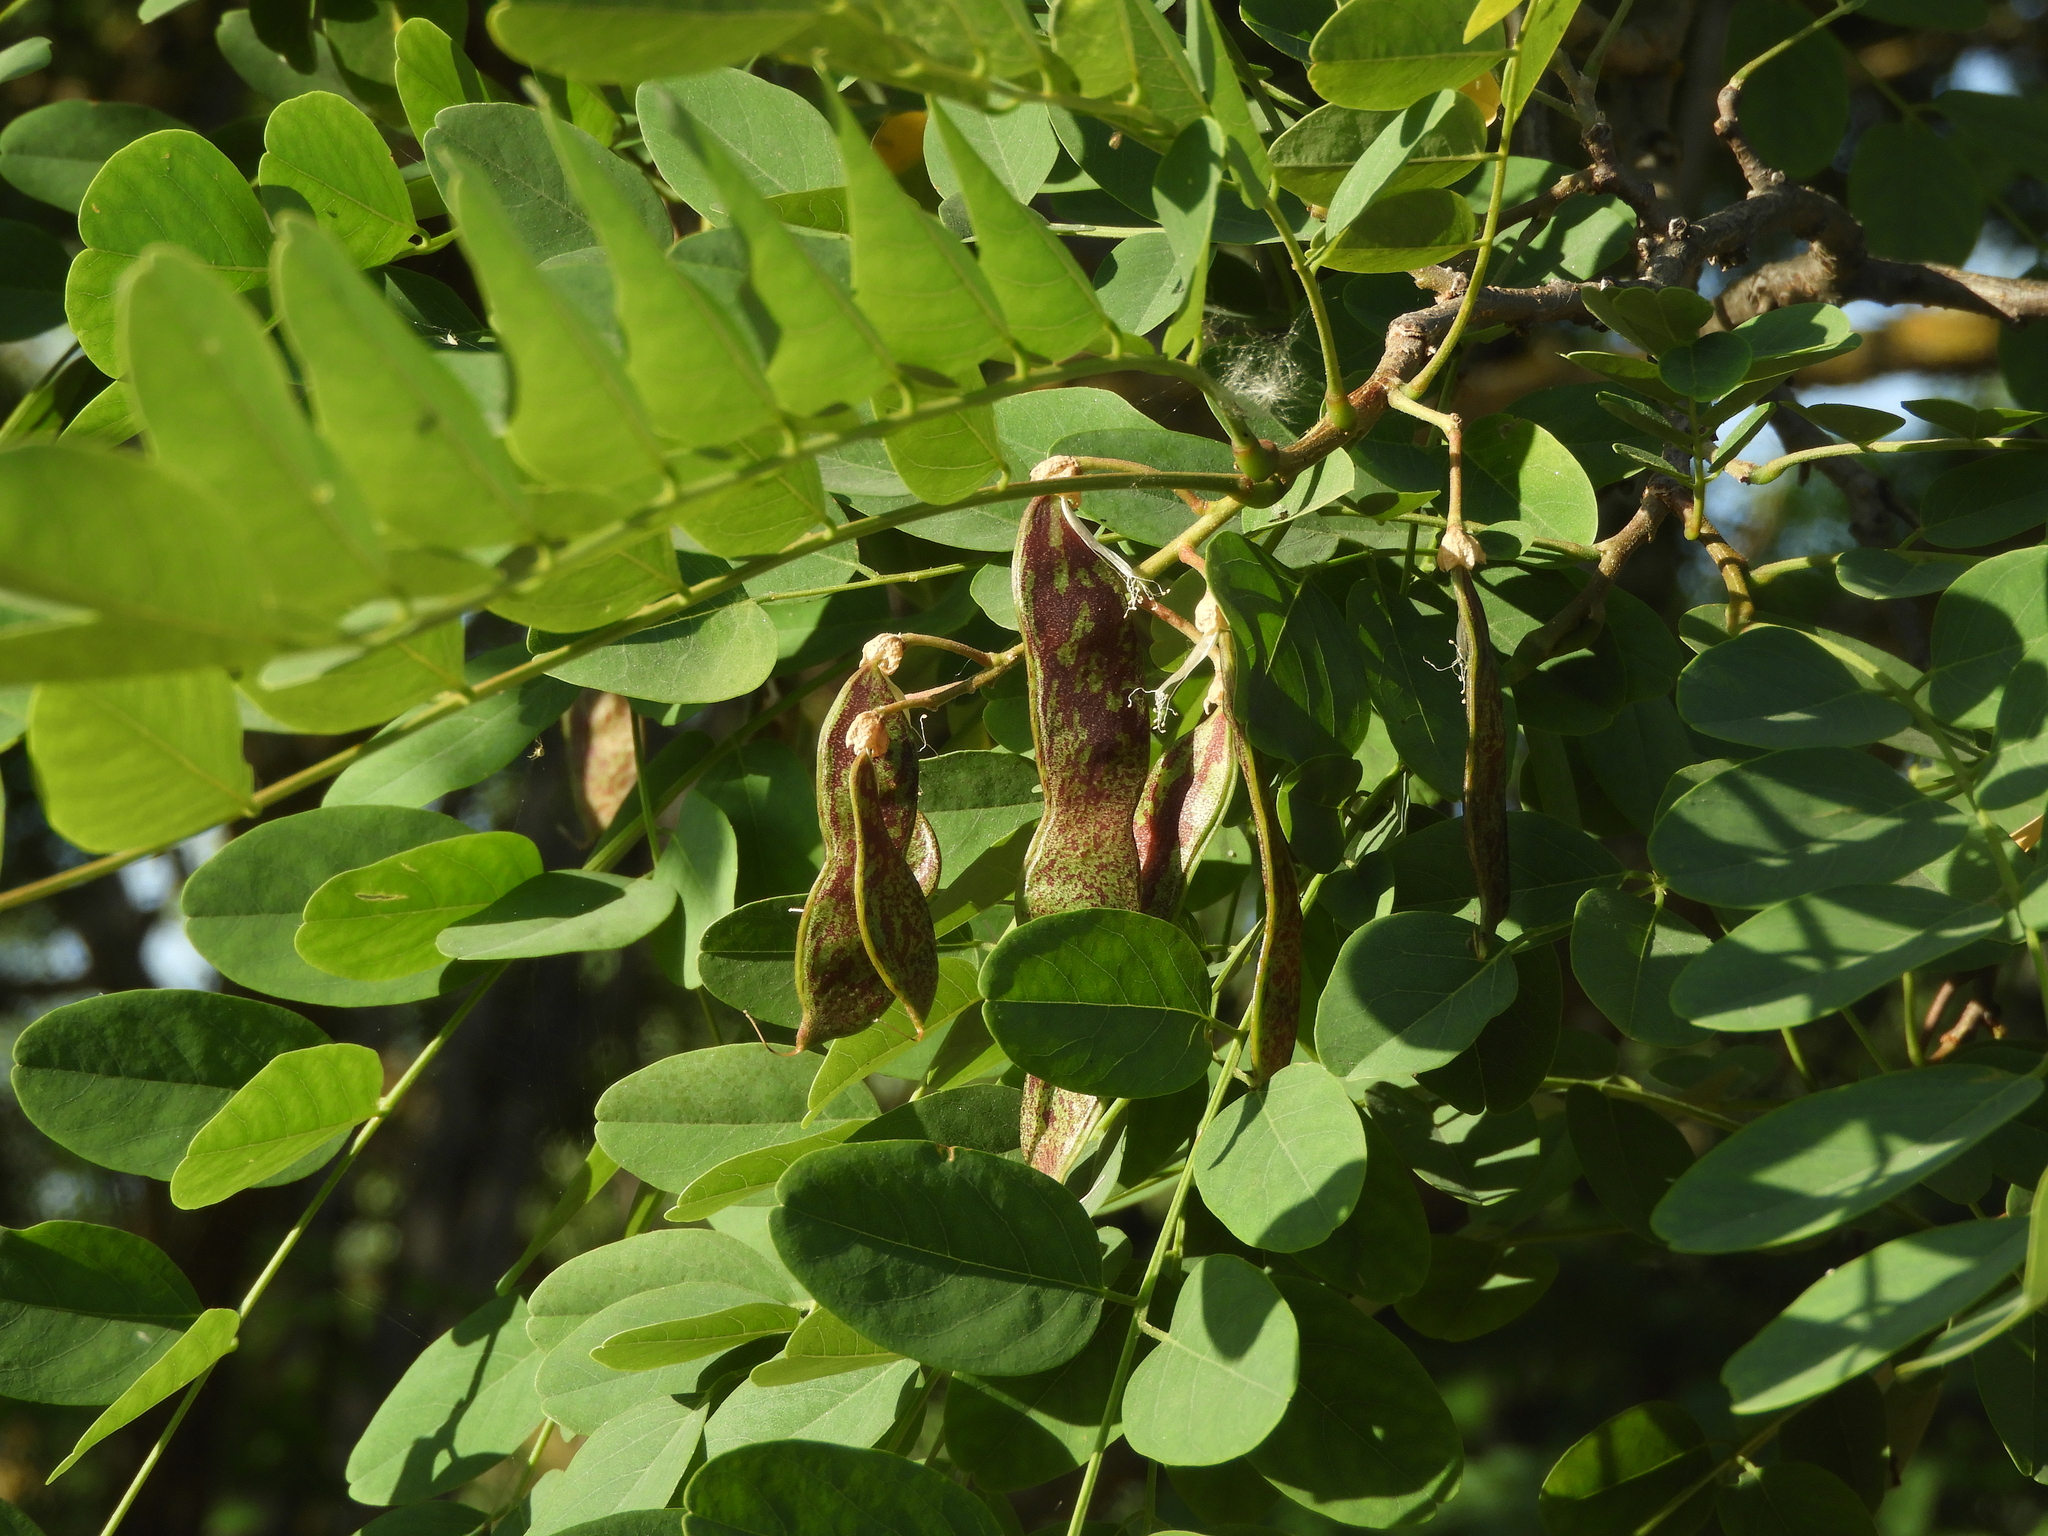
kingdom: Plantae
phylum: Tracheophyta
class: Magnoliopsida
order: Fabales
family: Fabaceae
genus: Robinia
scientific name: Robinia pseudoacacia
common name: Black locust
